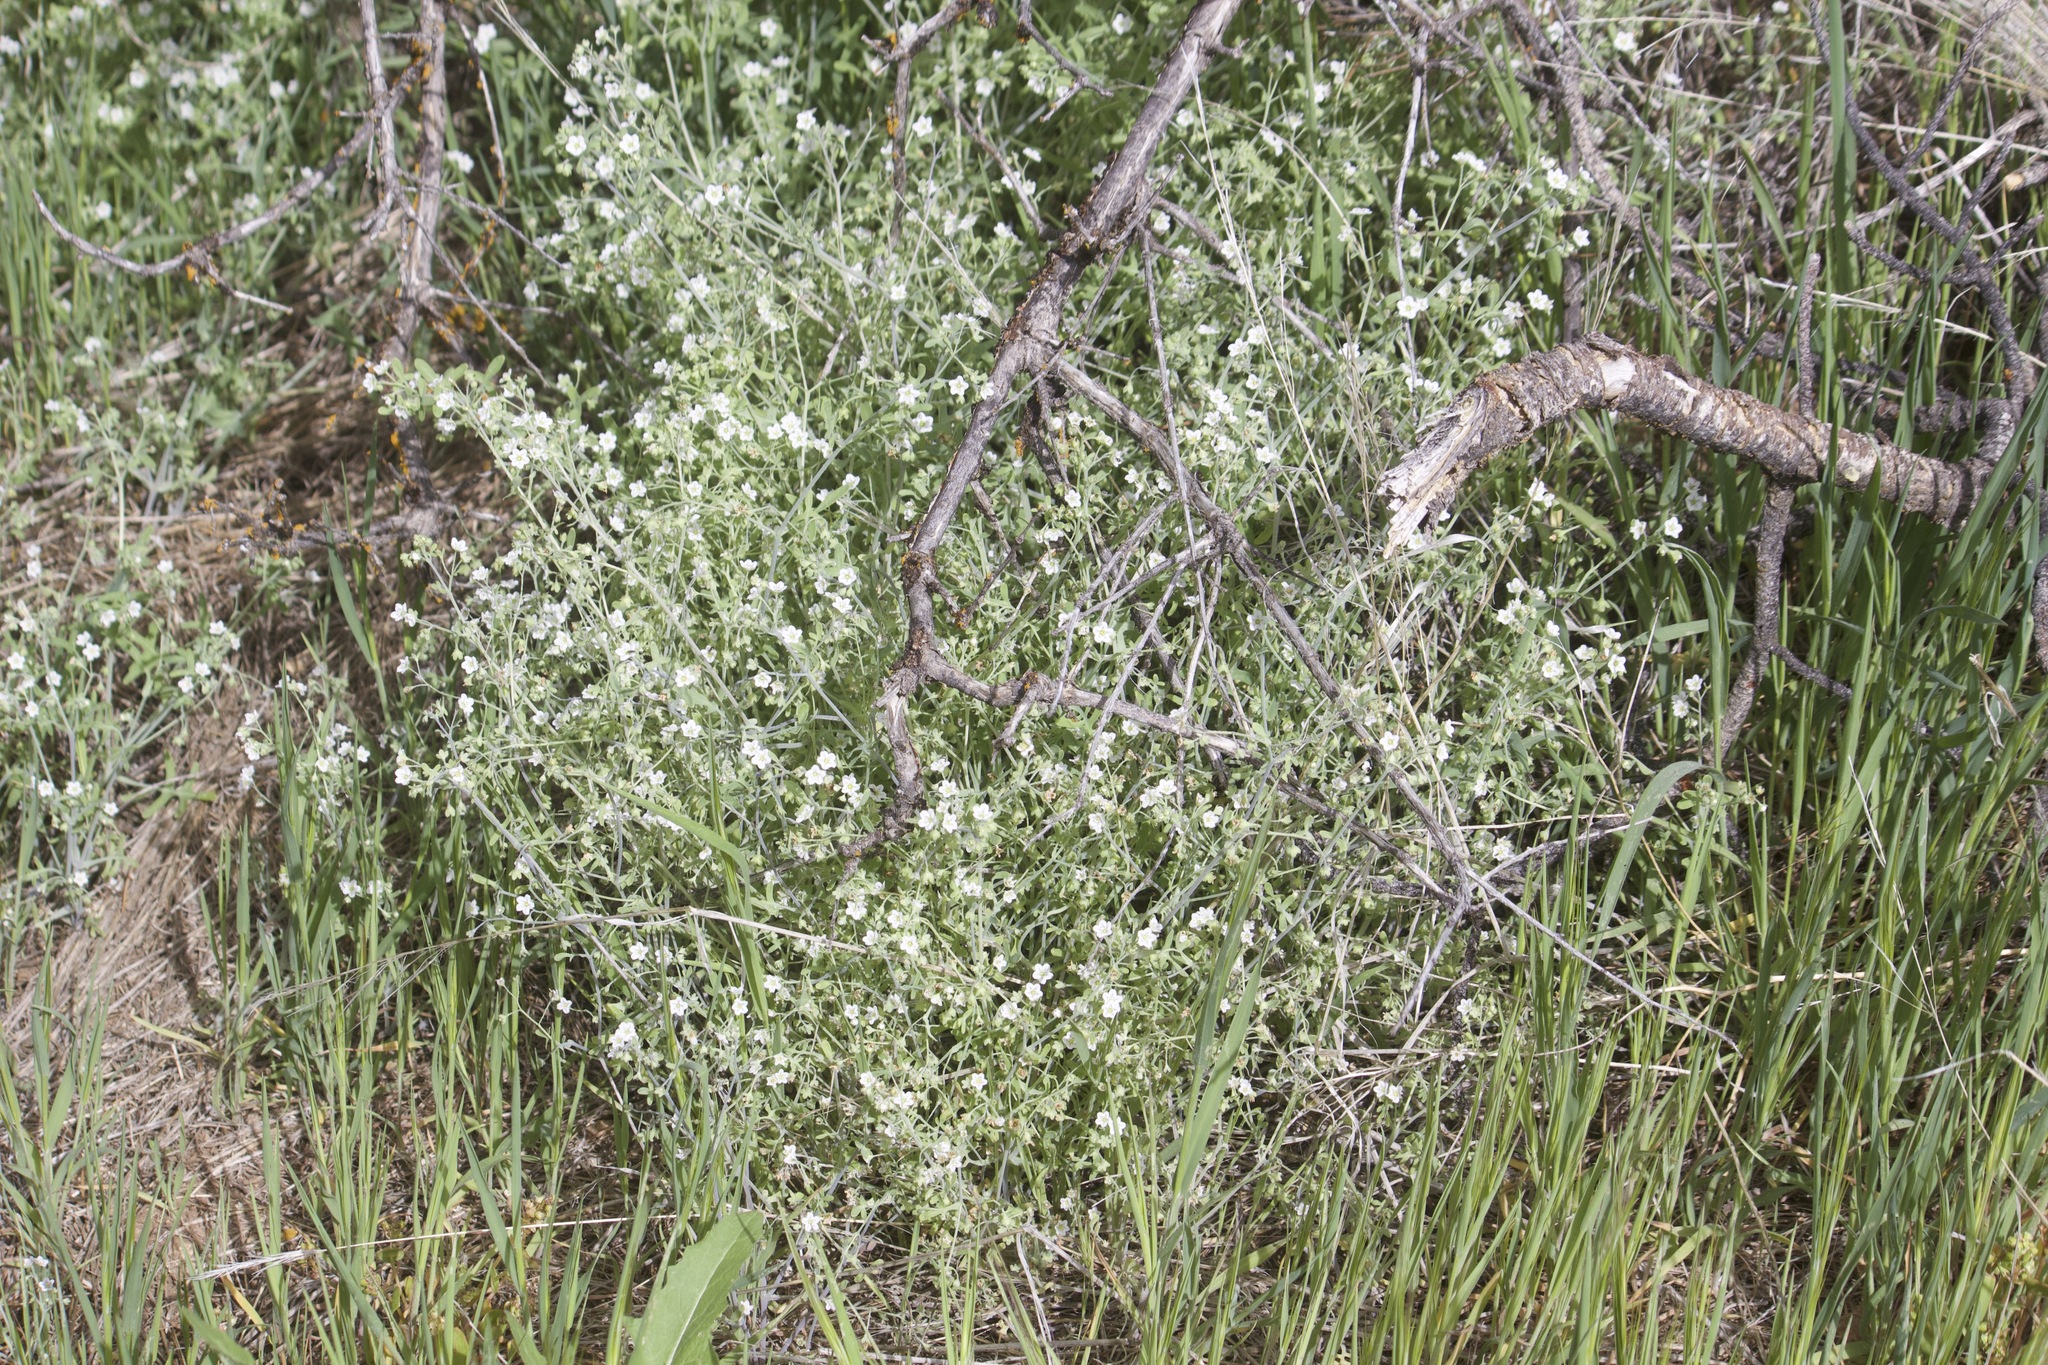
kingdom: Plantae
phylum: Tracheophyta
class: Magnoliopsida
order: Boraginales
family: Hydrophyllaceae
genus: Pholistoma
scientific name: Pholistoma membranaceum
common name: White fiesta-flower
